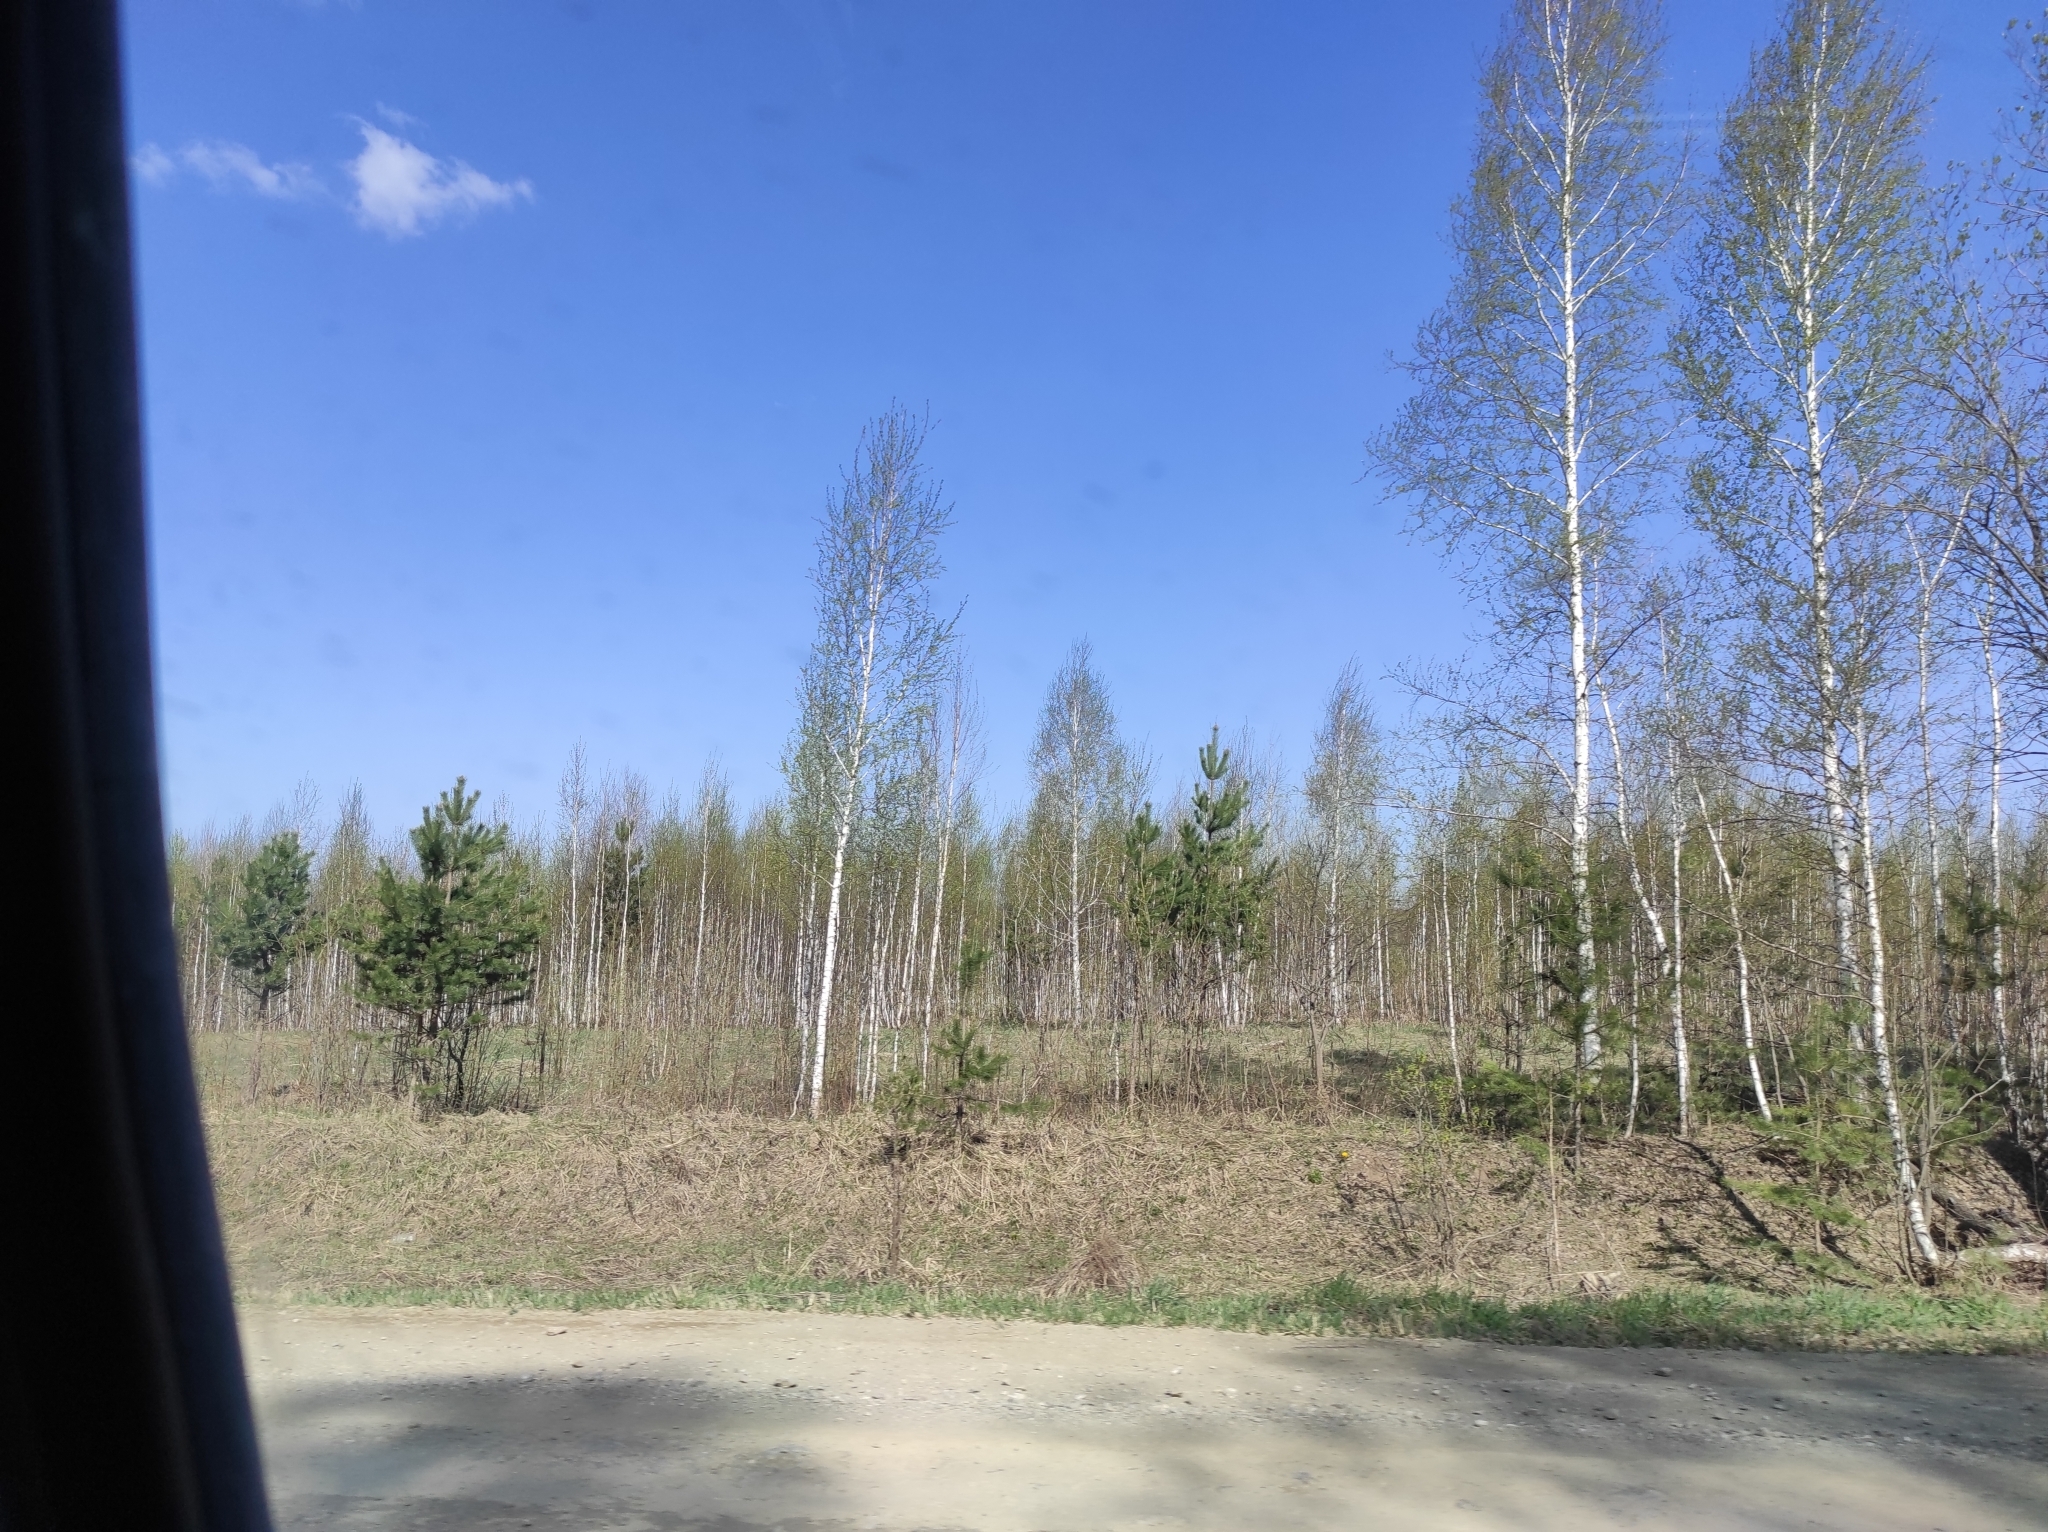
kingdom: Plantae
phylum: Tracheophyta
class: Pinopsida
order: Pinales
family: Pinaceae
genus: Pinus
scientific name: Pinus sylvestris
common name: Scots pine
